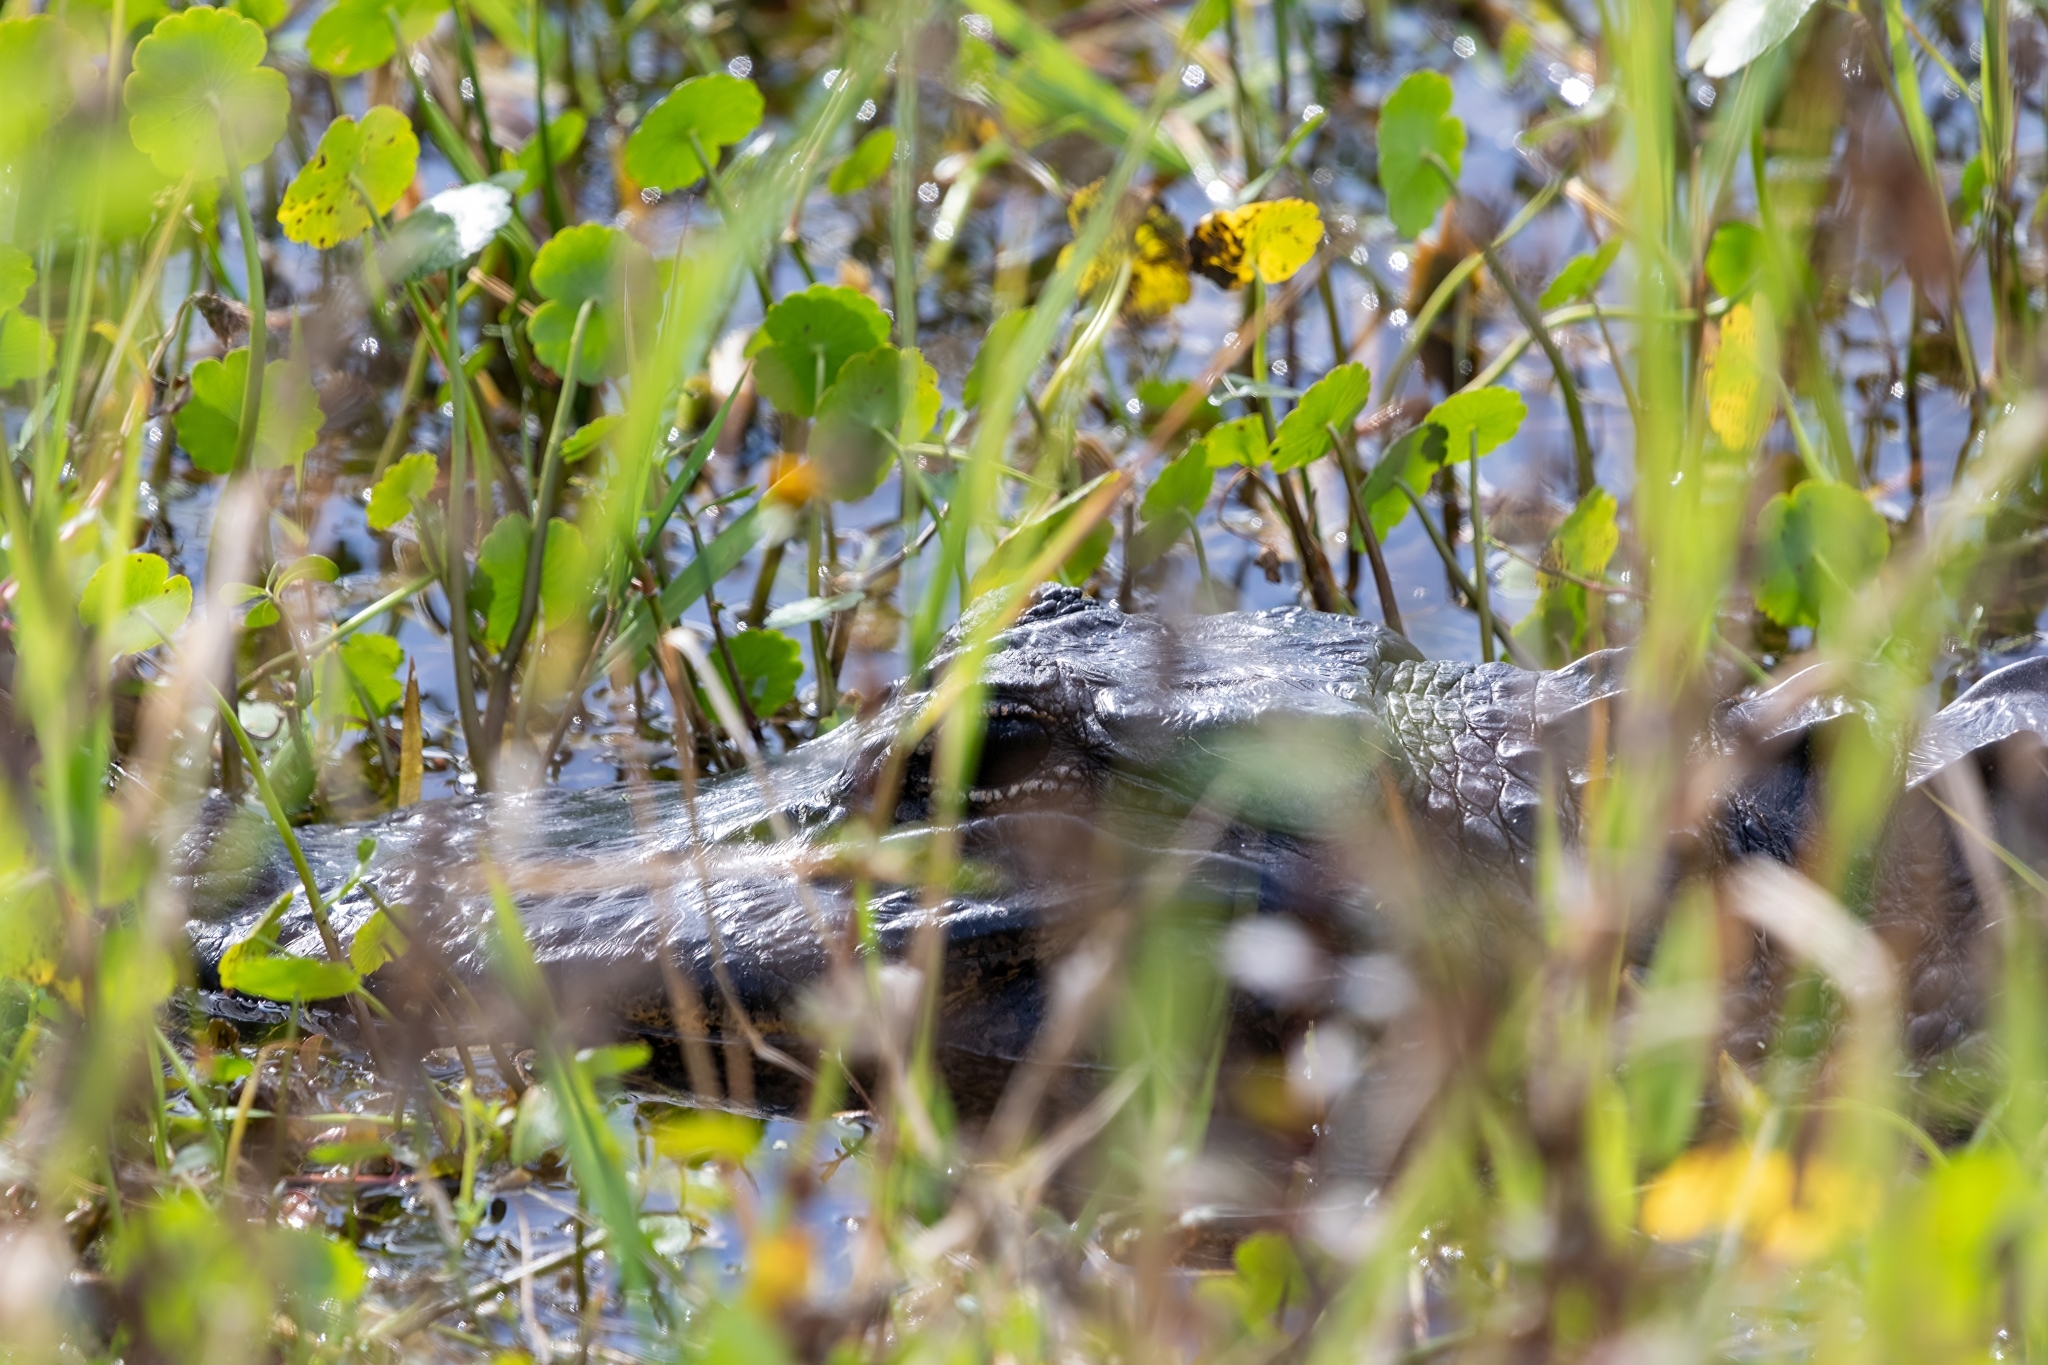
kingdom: Animalia
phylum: Chordata
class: Crocodylia
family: Alligatoridae
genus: Alligator
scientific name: Alligator mississippiensis
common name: American alligator
